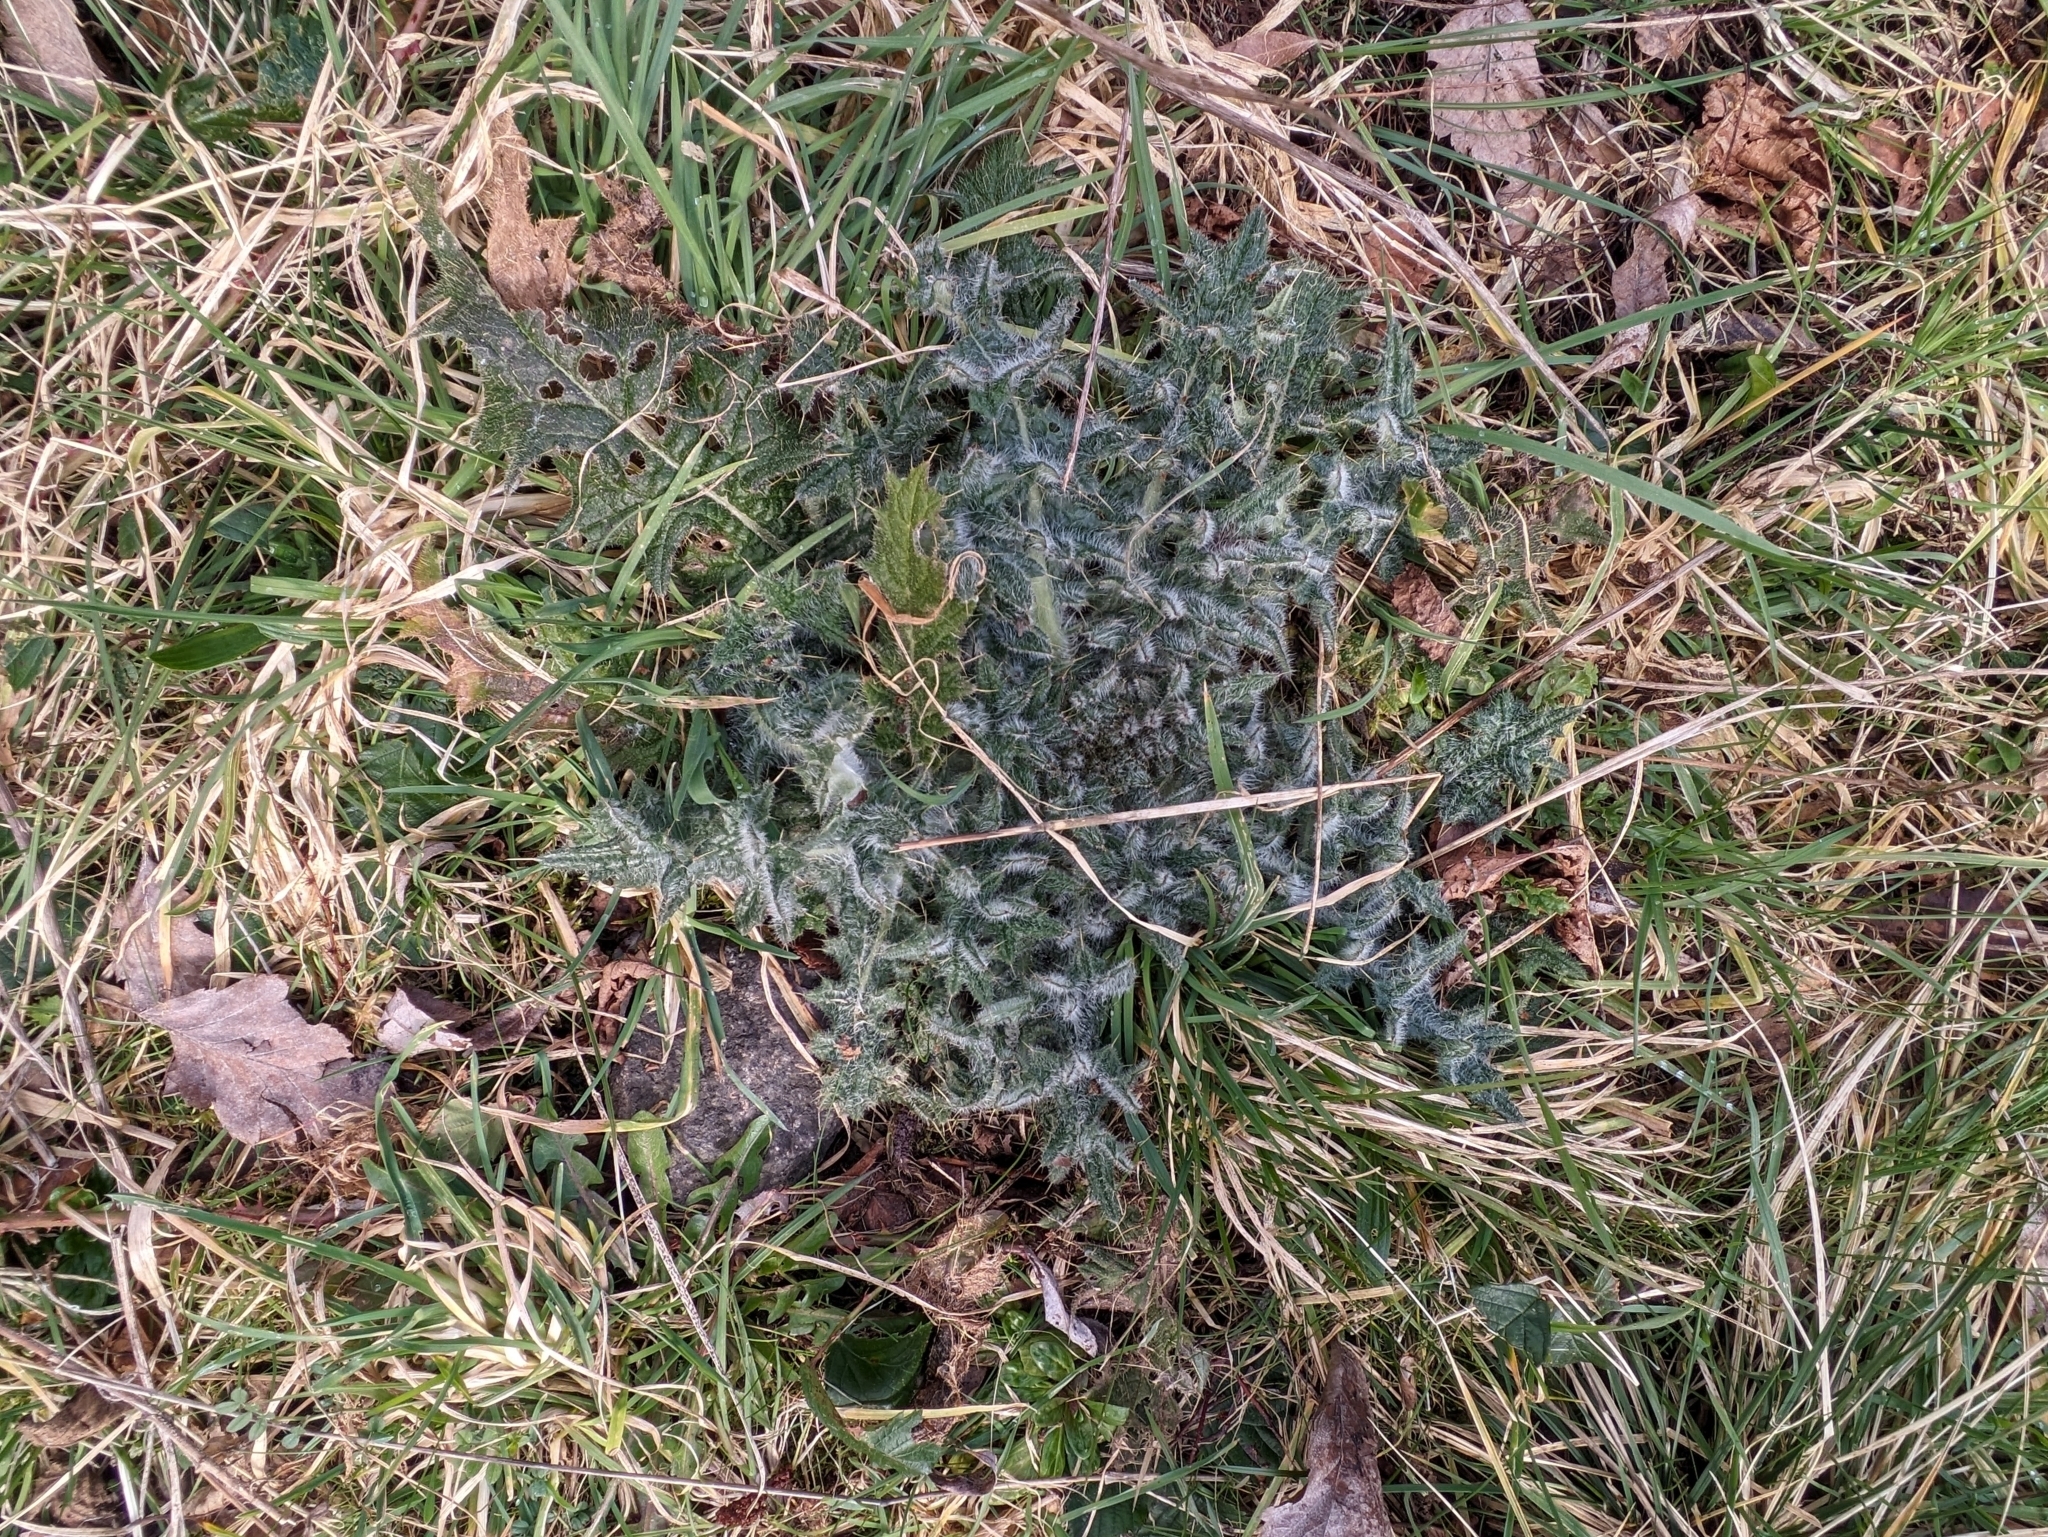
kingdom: Plantae
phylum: Tracheophyta
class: Magnoliopsida
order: Asterales
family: Asteraceae
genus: Cirsium
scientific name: Cirsium vulgare
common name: Bull thistle
